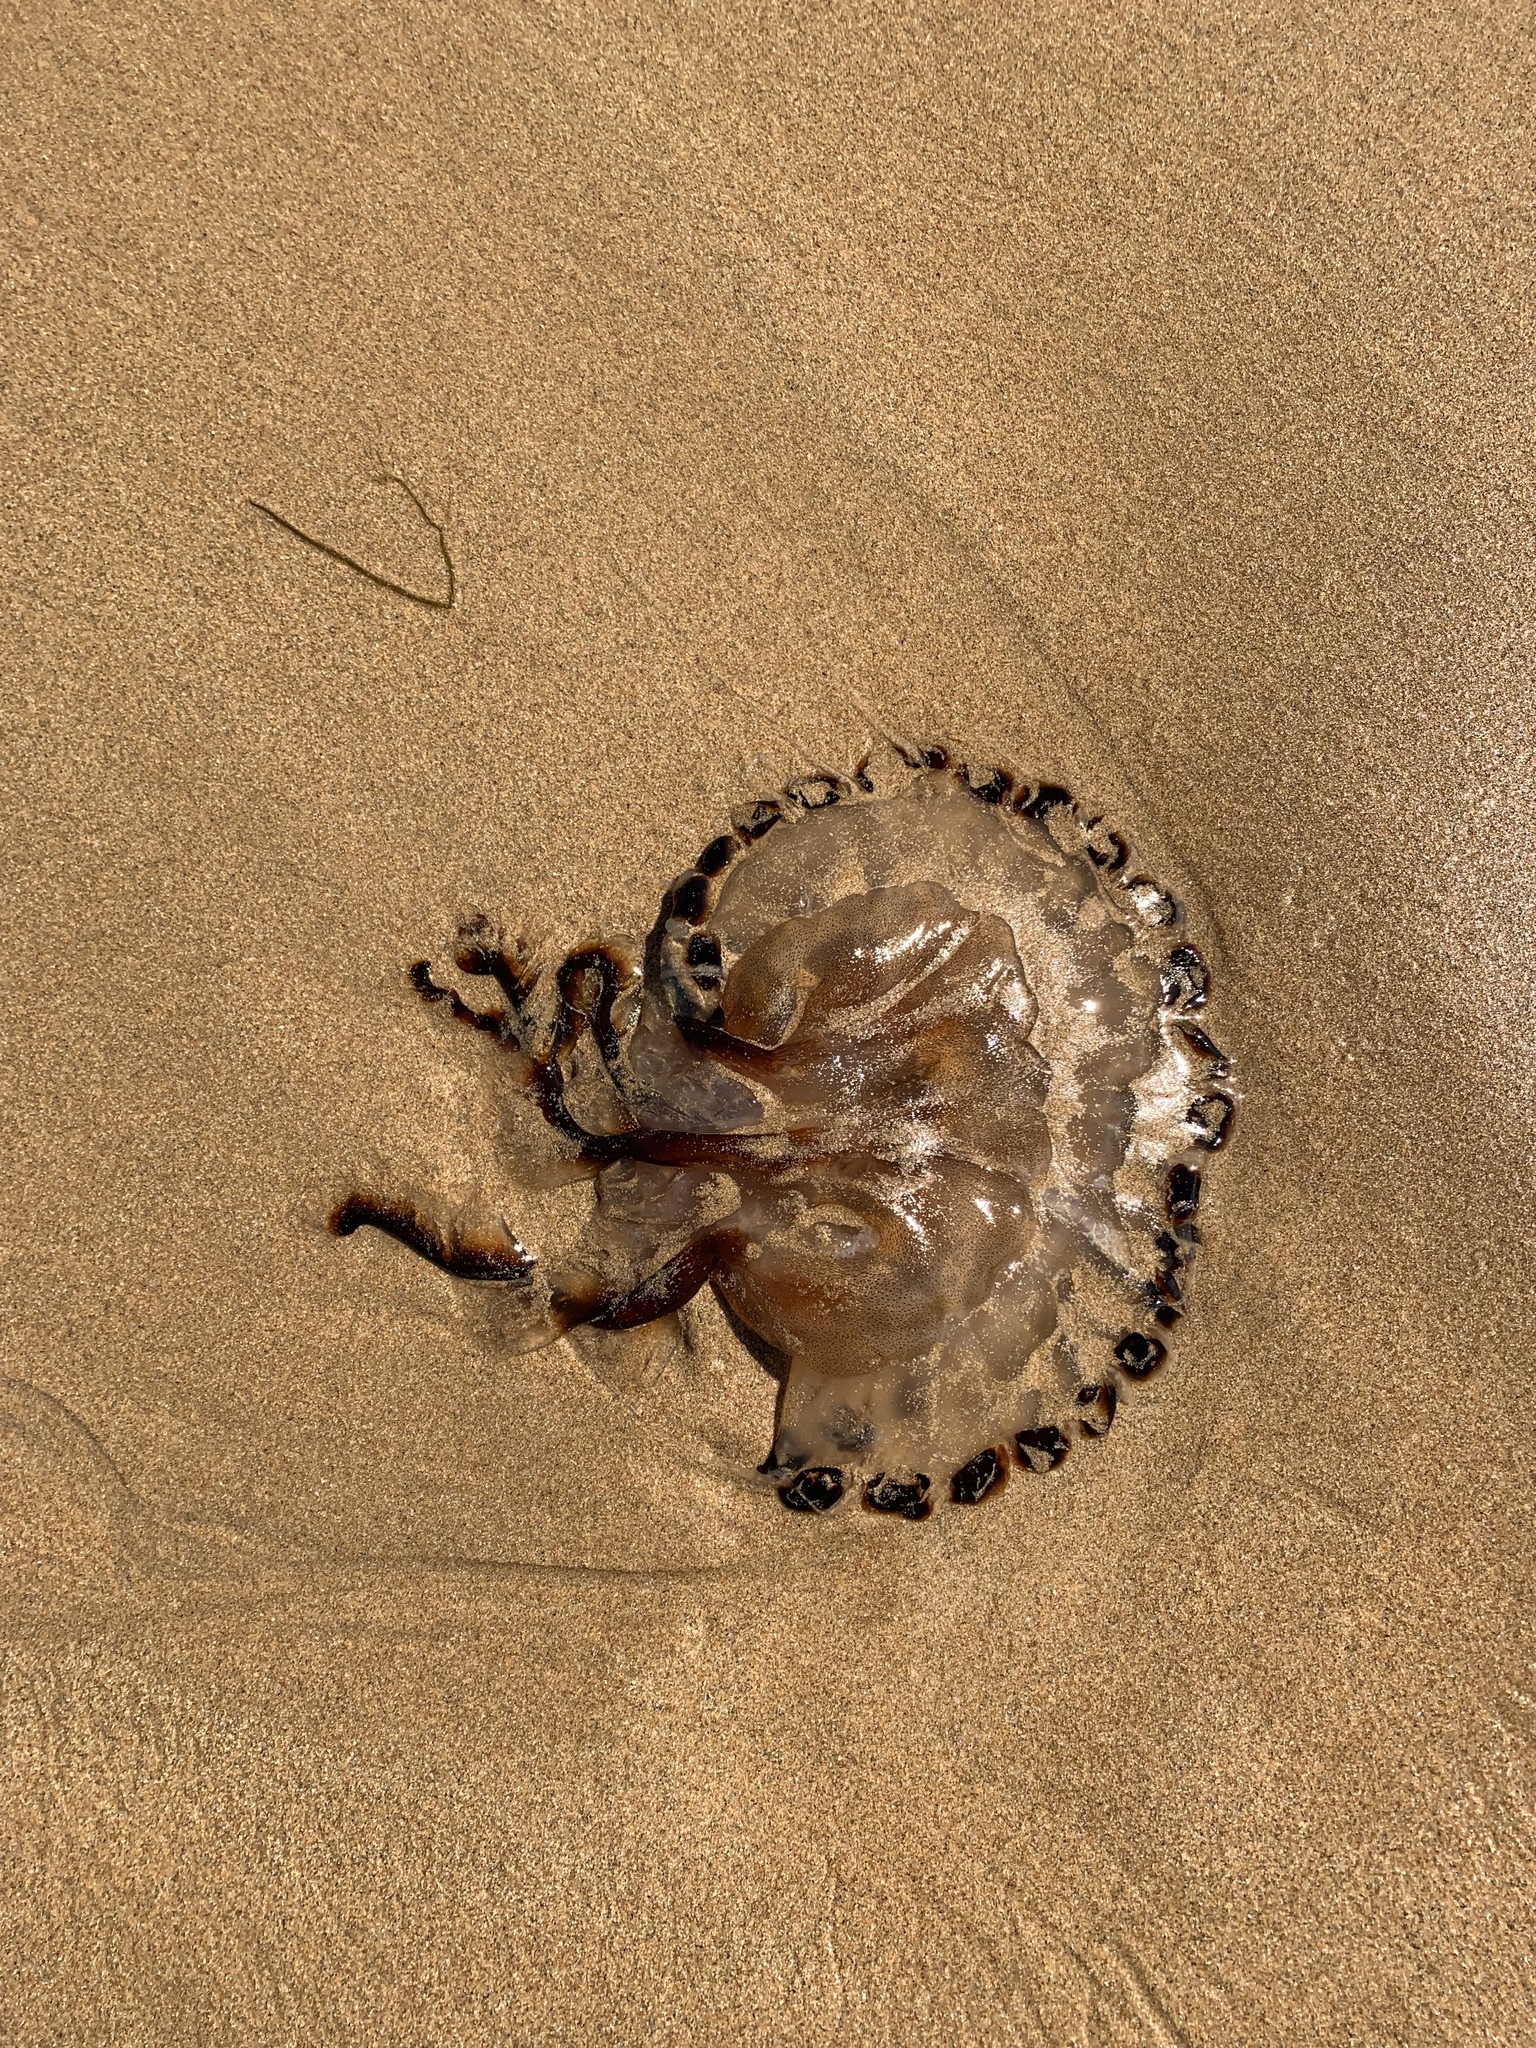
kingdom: Animalia
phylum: Cnidaria
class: Scyphozoa
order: Semaeostomeae
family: Pelagiidae
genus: Chrysaora
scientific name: Chrysaora hysoscella
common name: Compass jellyfish
